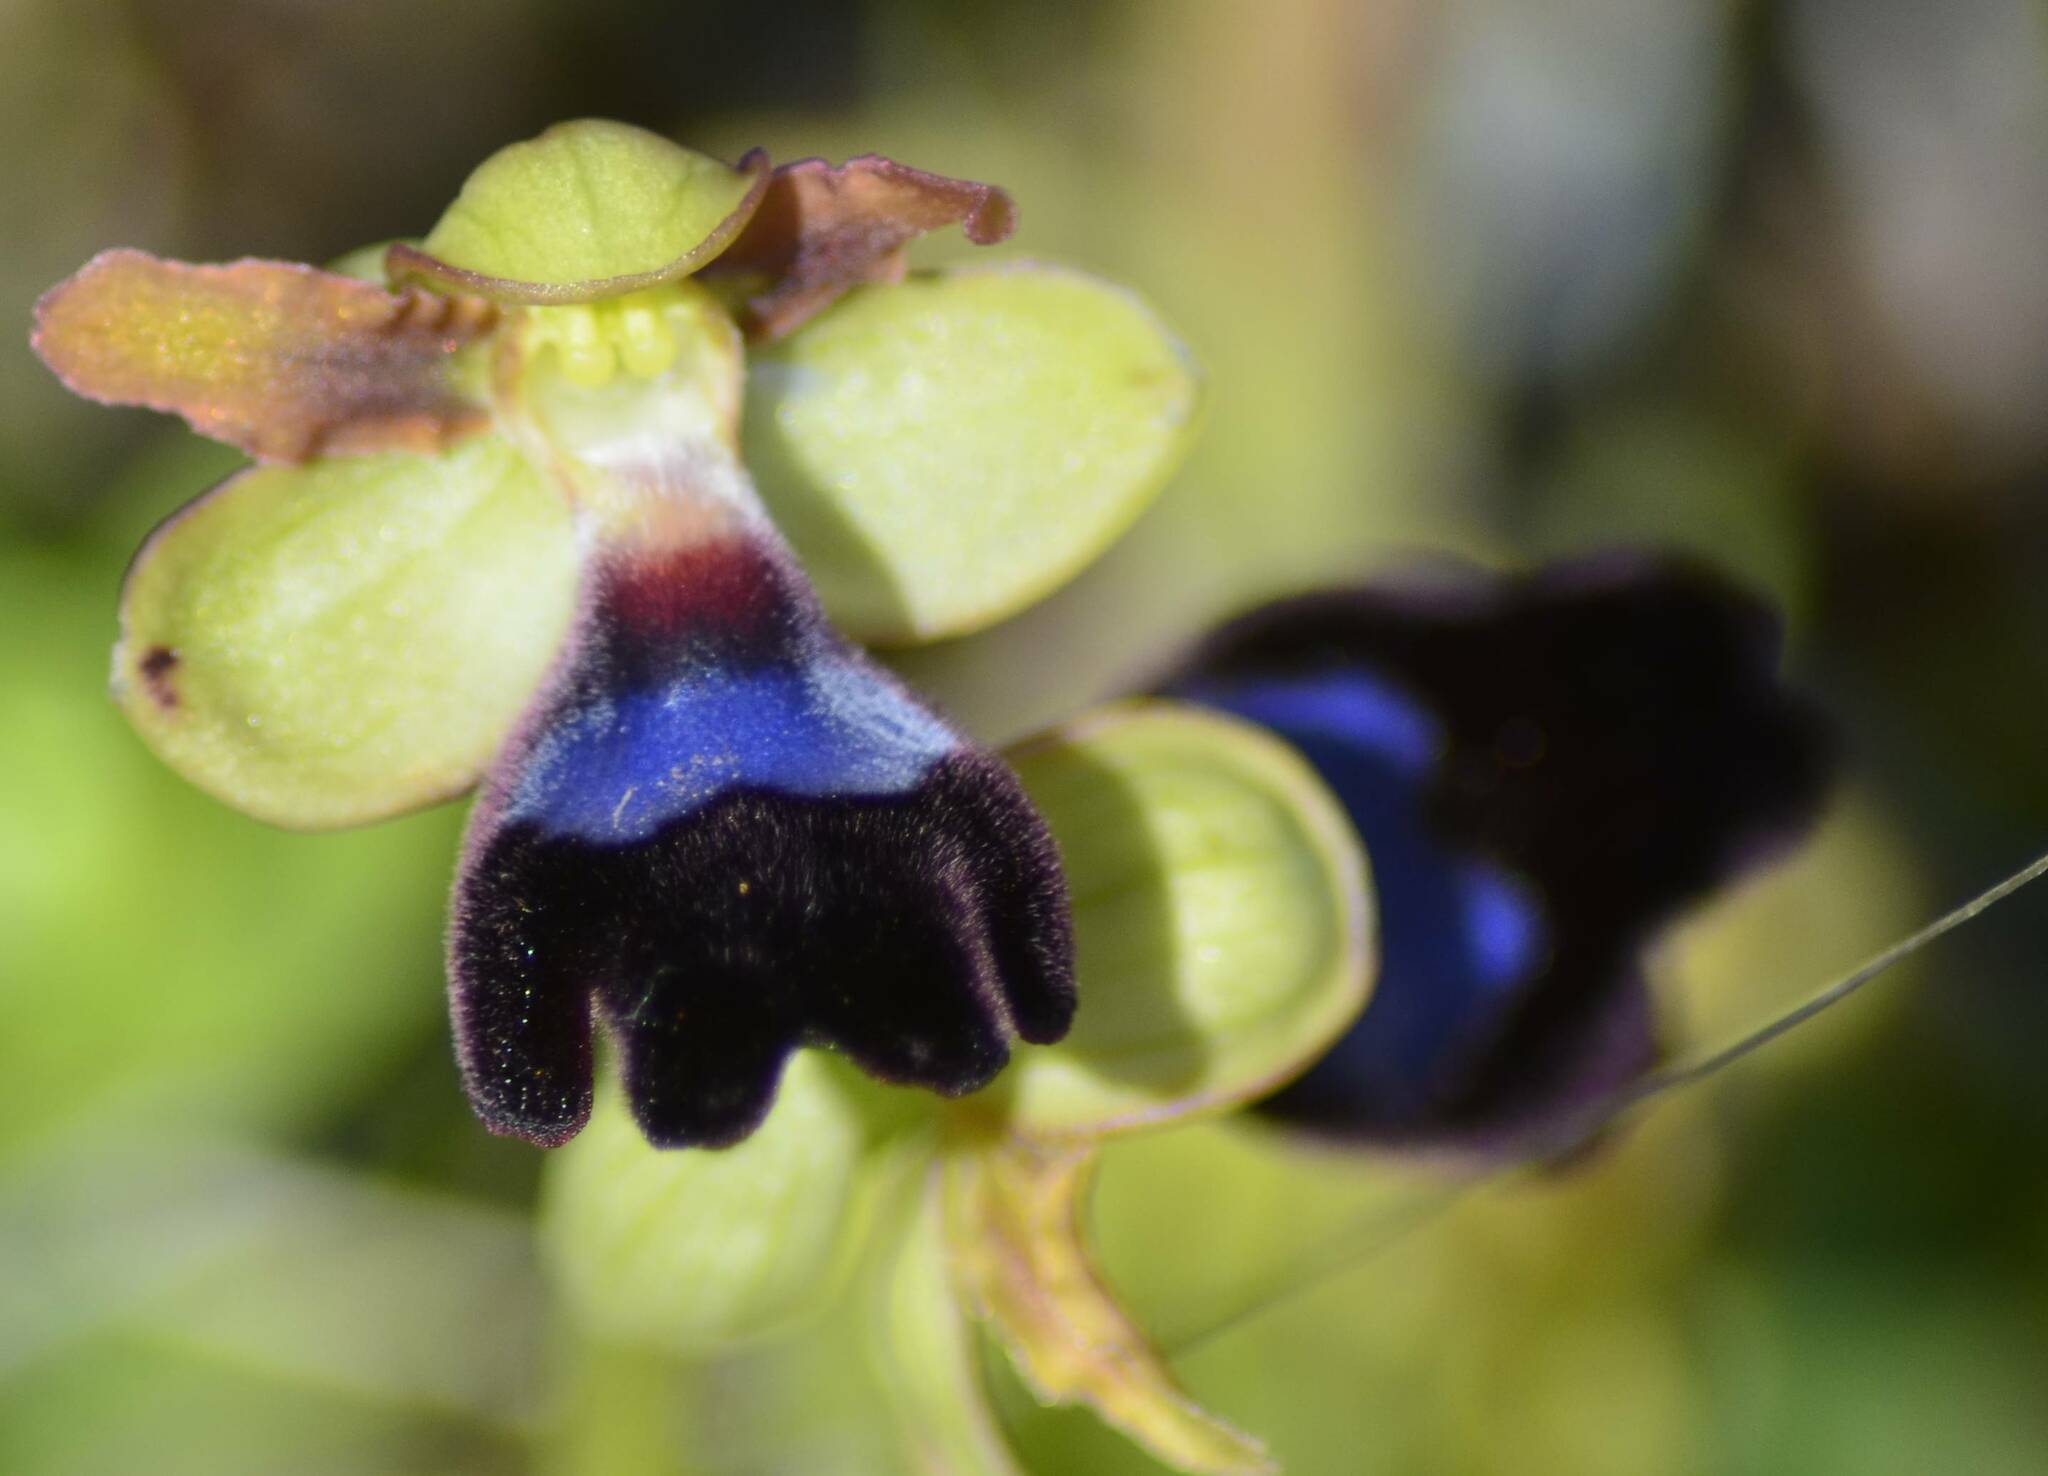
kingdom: Plantae
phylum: Tracheophyta
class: Liliopsida
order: Asparagales
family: Orchidaceae
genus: Ophrys
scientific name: Ophrys atlantica
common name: Atlantic ophrys
